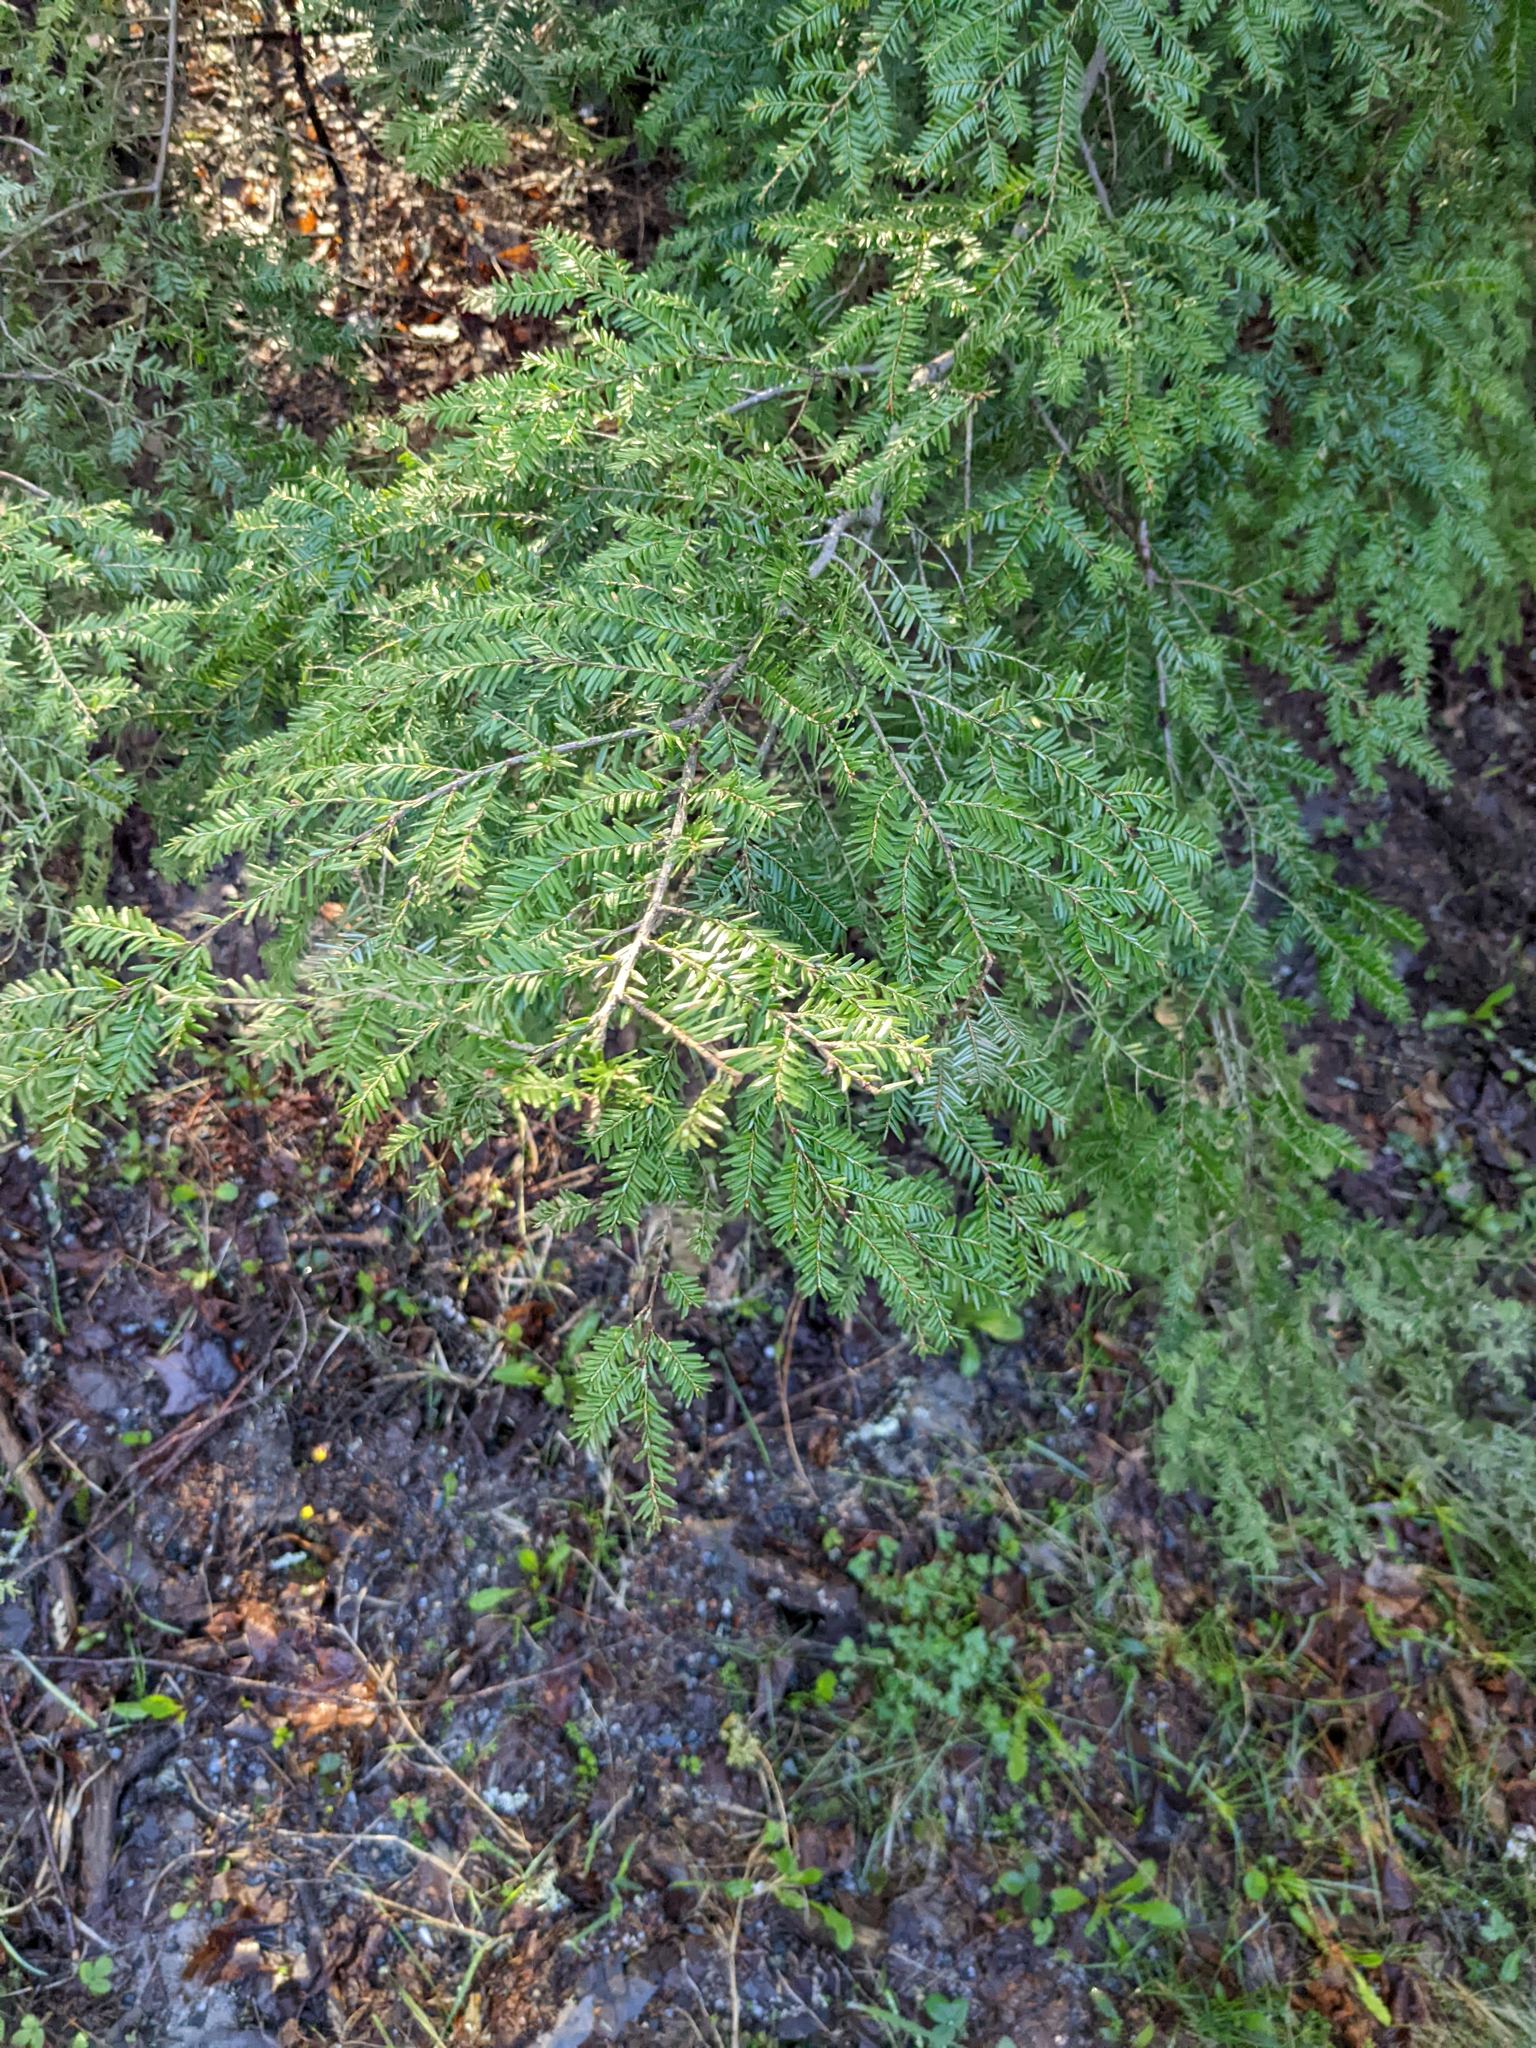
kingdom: Plantae
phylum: Tracheophyta
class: Pinopsida
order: Pinales
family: Pinaceae
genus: Tsuga
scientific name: Tsuga canadensis
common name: Eastern hemlock
